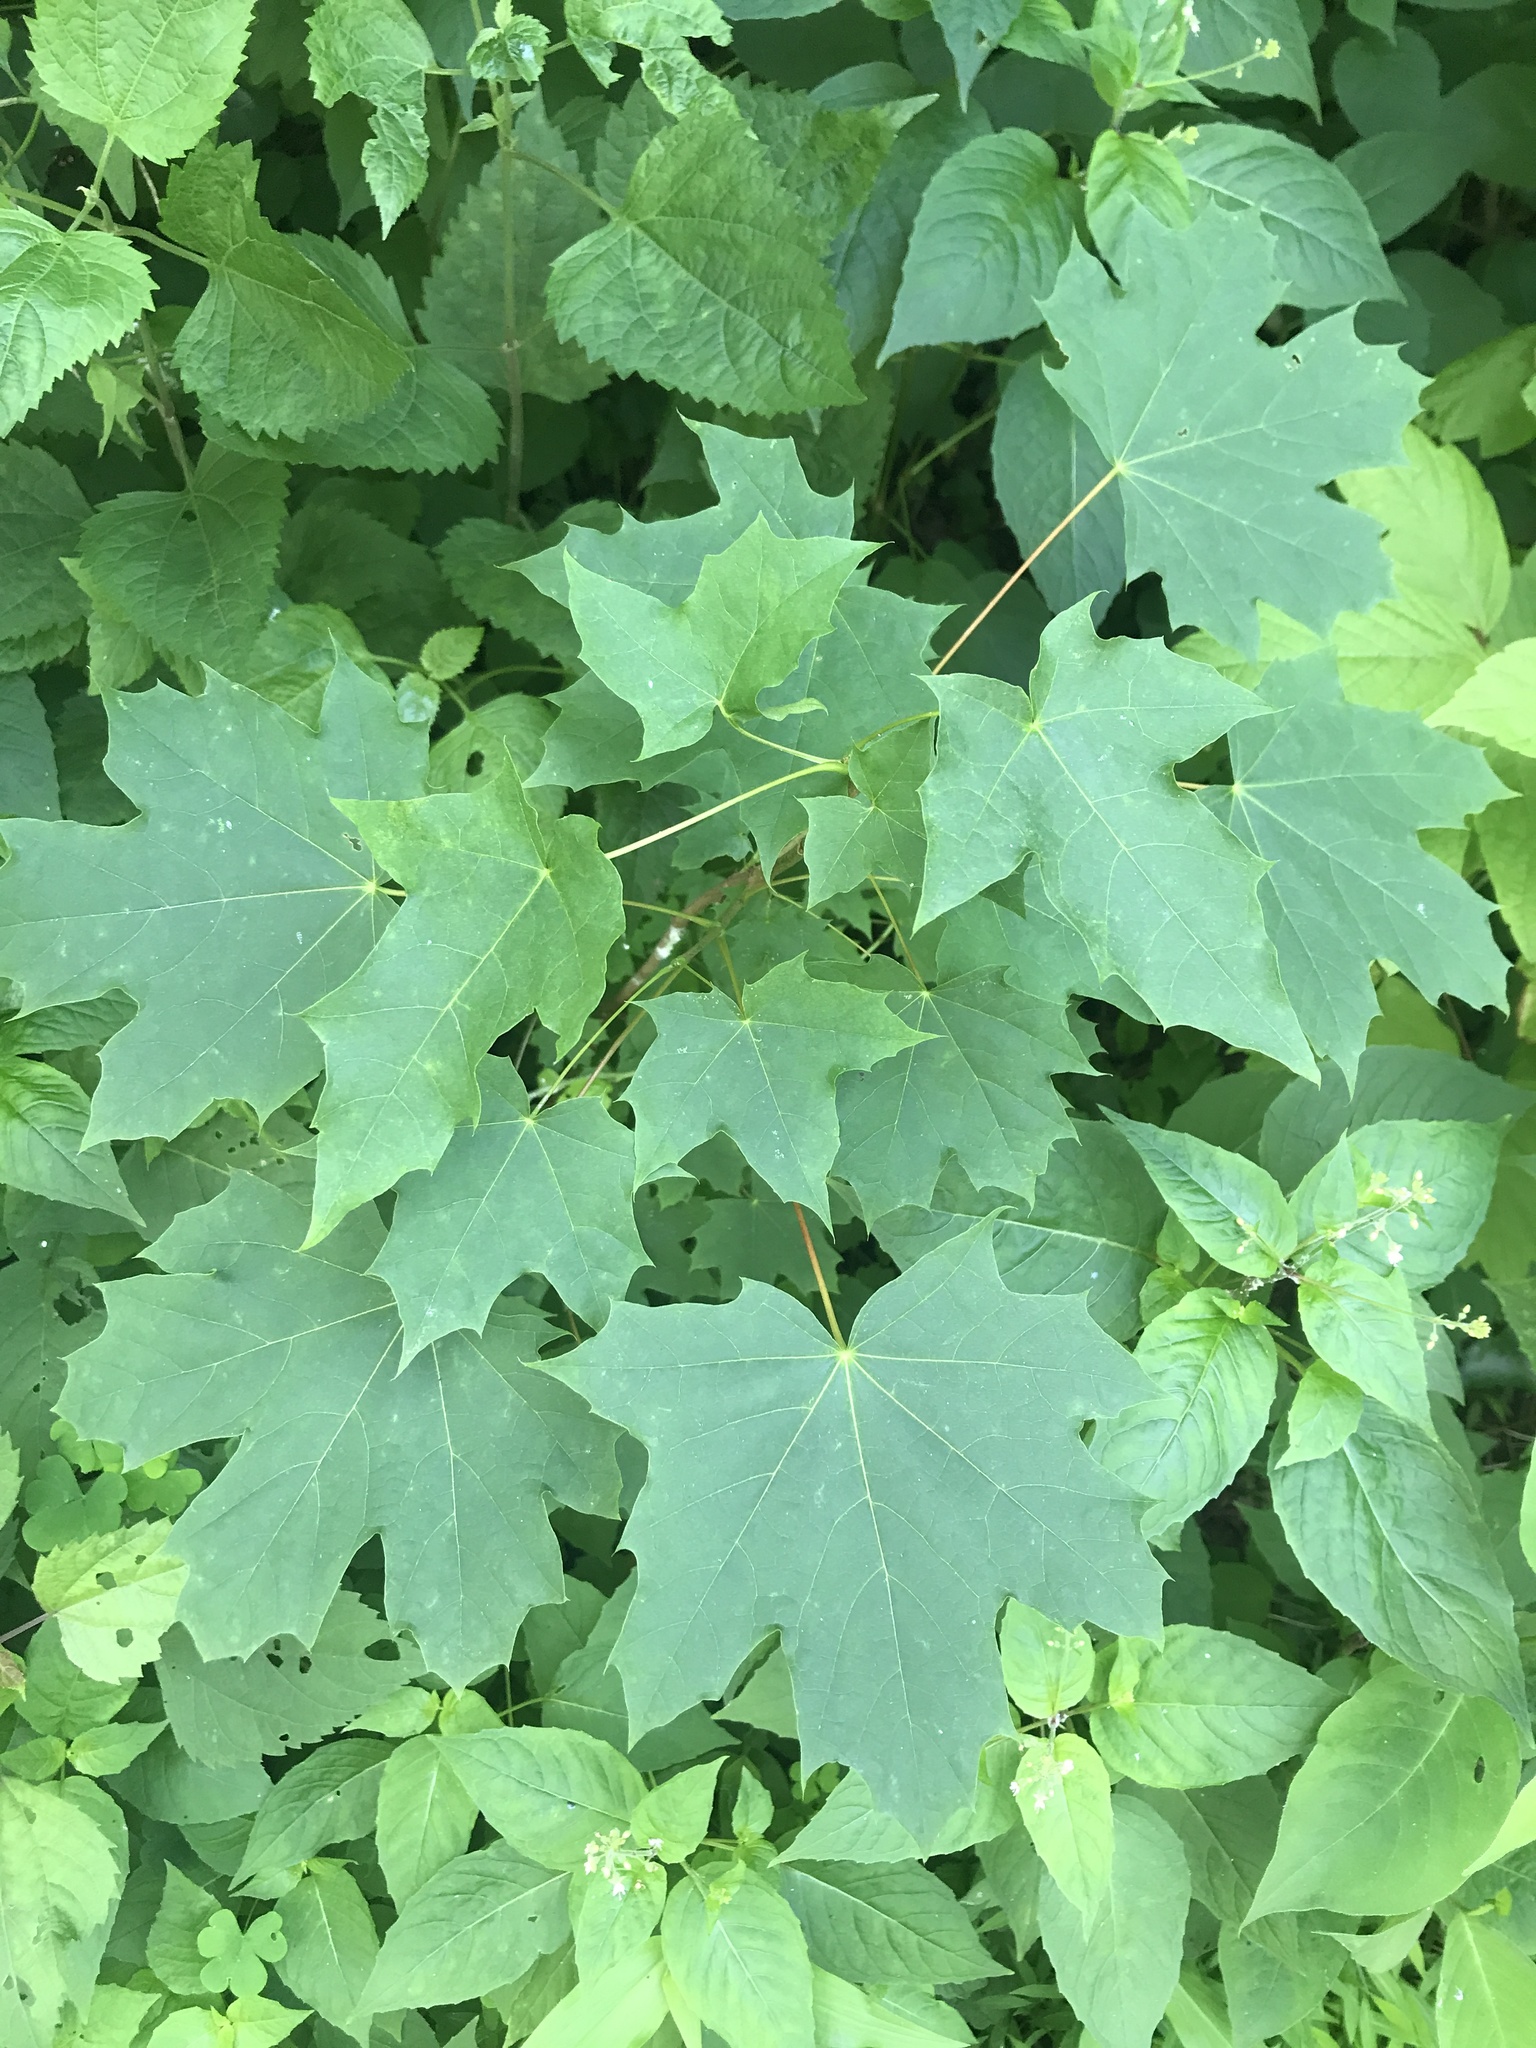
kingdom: Plantae
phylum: Tracheophyta
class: Magnoliopsida
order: Sapindales
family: Sapindaceae
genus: Acer
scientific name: Acer platanoides
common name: Norway maple
